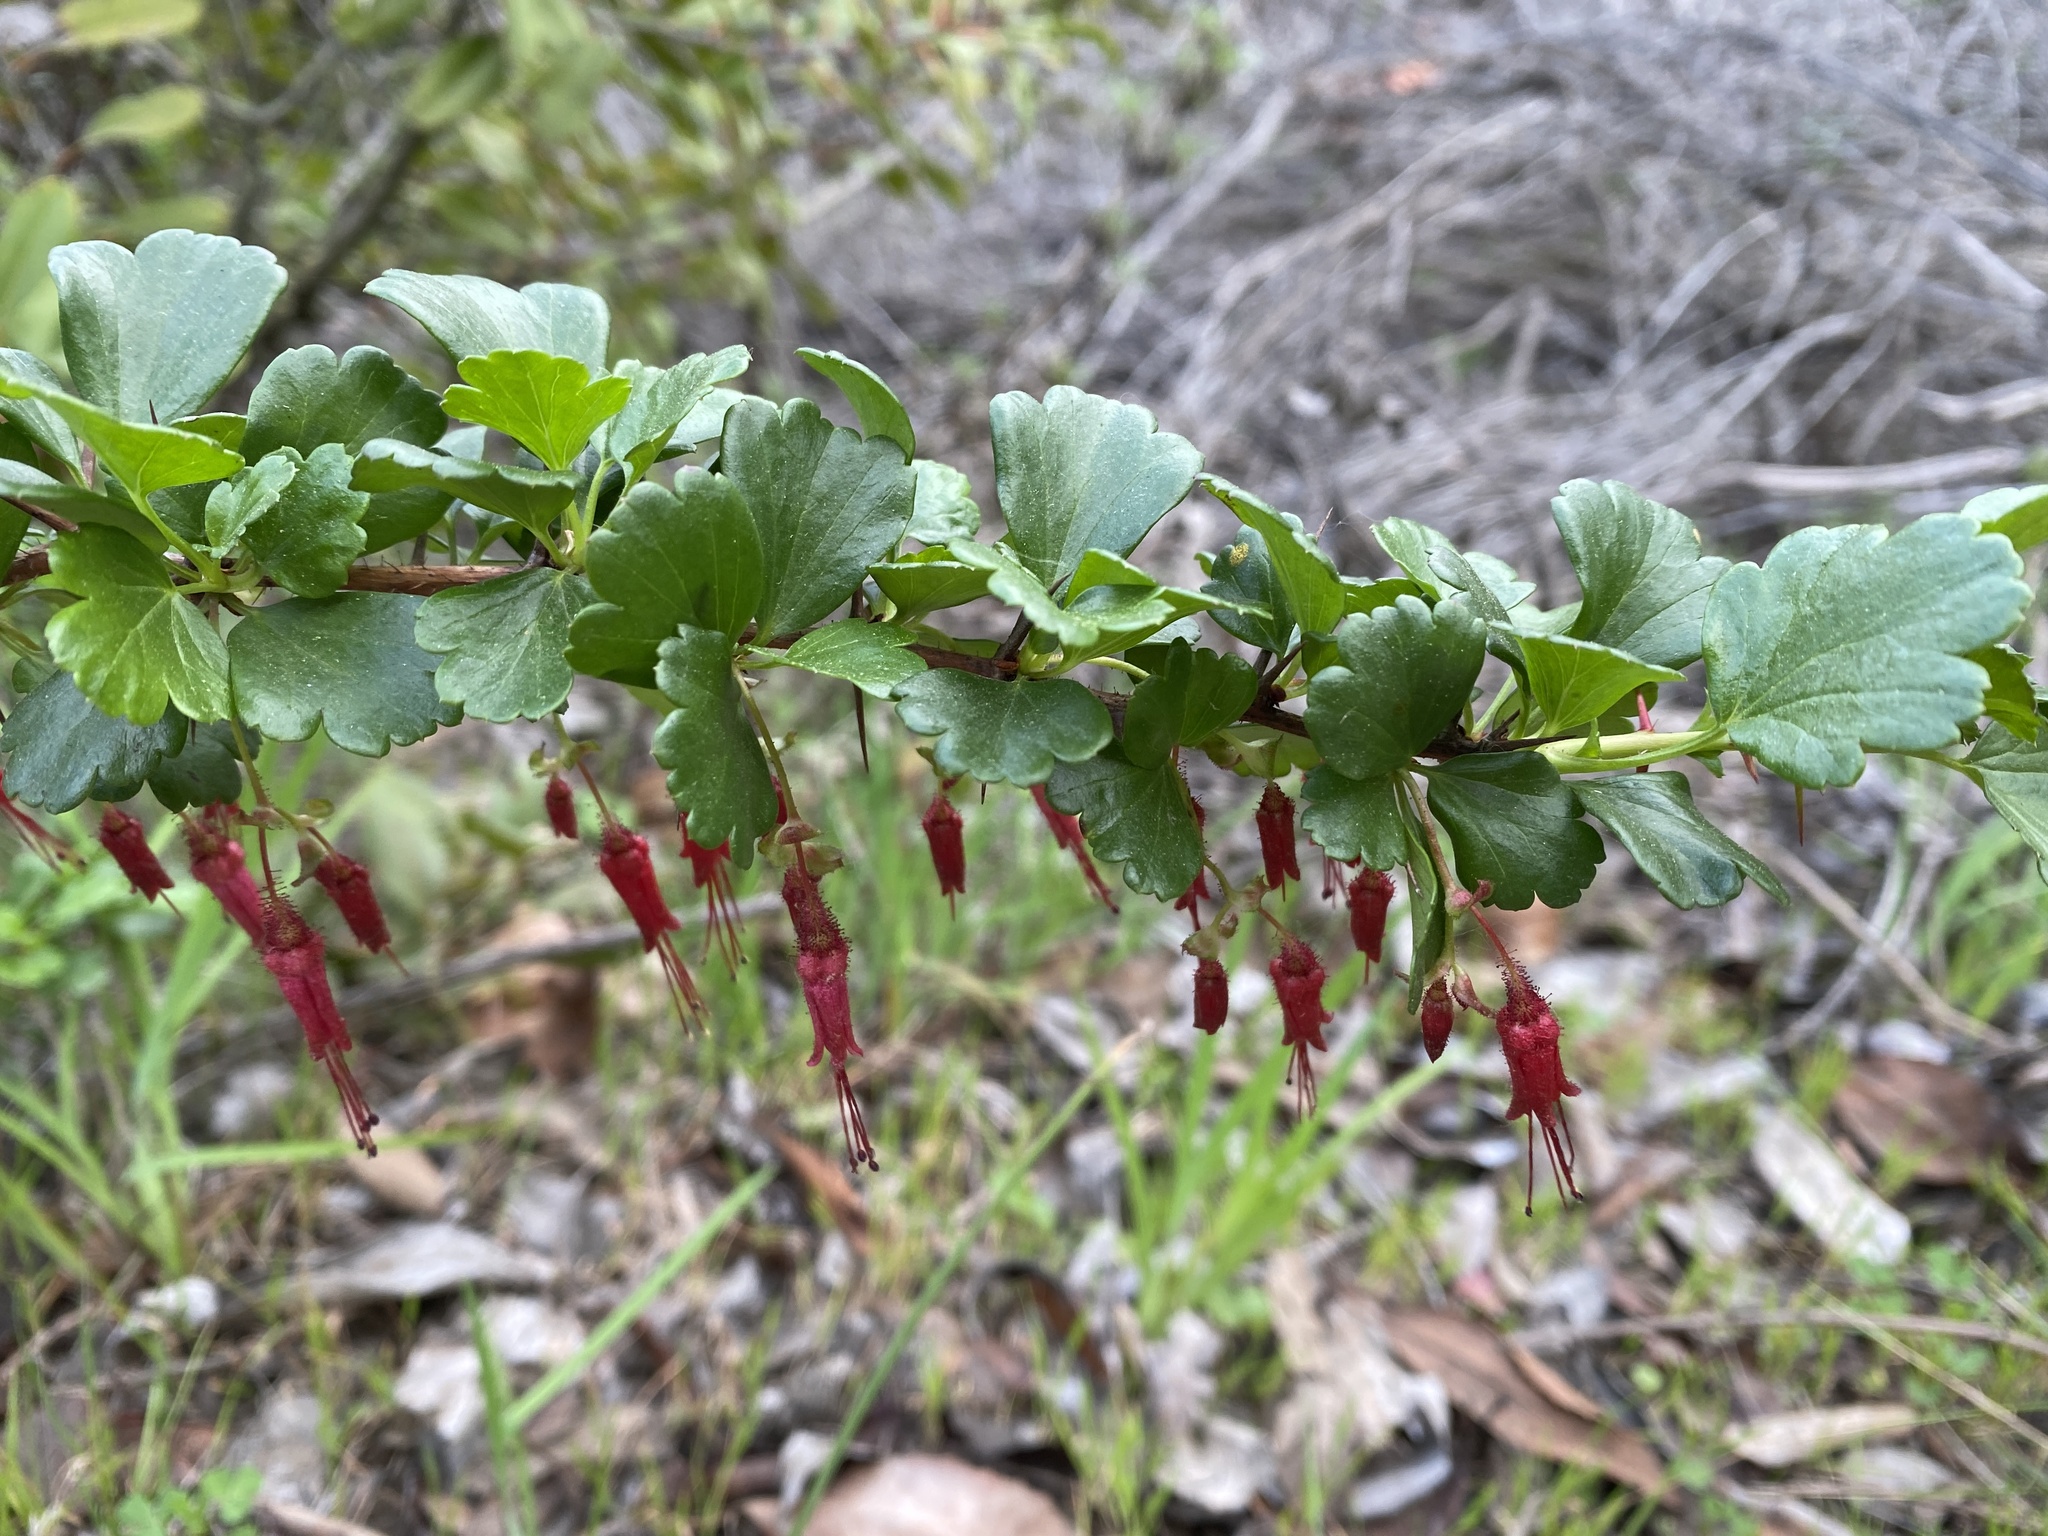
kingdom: Plantae
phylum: Tracheophyta
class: Magnoliopsida
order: Saxifragales
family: Grossulariaceae
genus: Ribes
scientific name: Ribes speciosum
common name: Fuchsia-flower gooseberry
